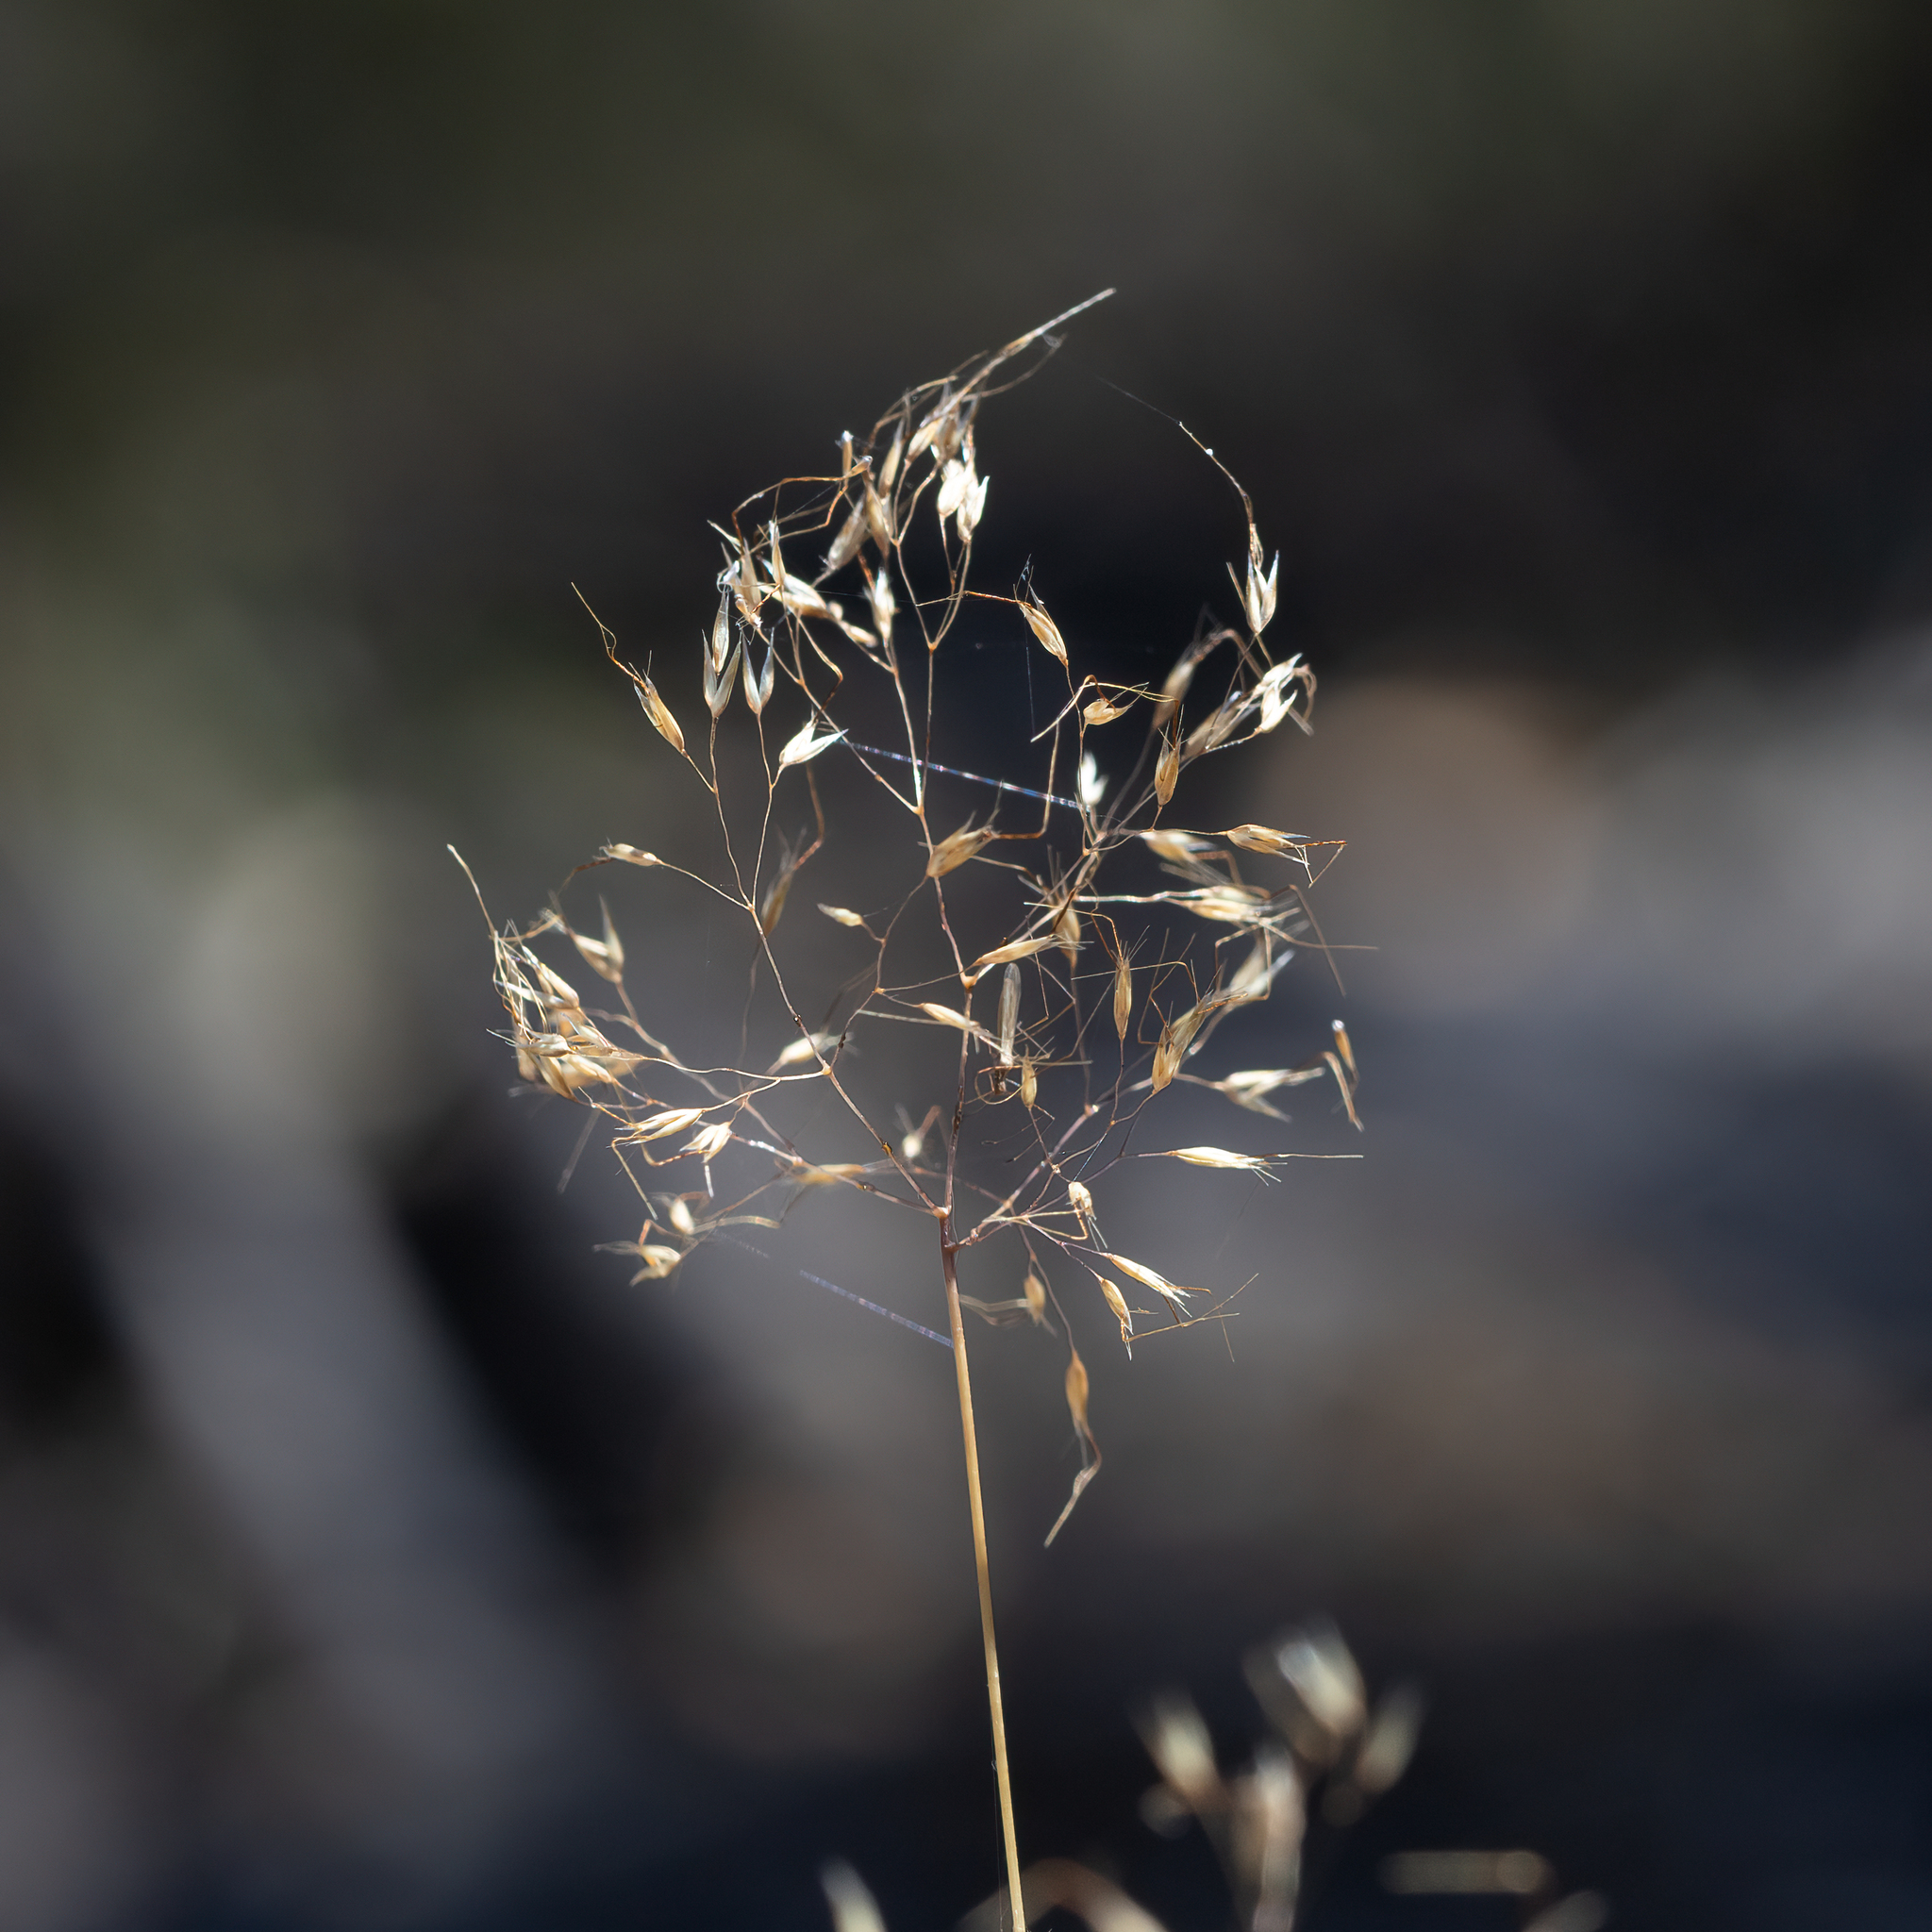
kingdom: Plantae
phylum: Tracheophyta
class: Liliopsida
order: Poales
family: Poaceae
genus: Pentameris
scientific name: Pentameris airoides
